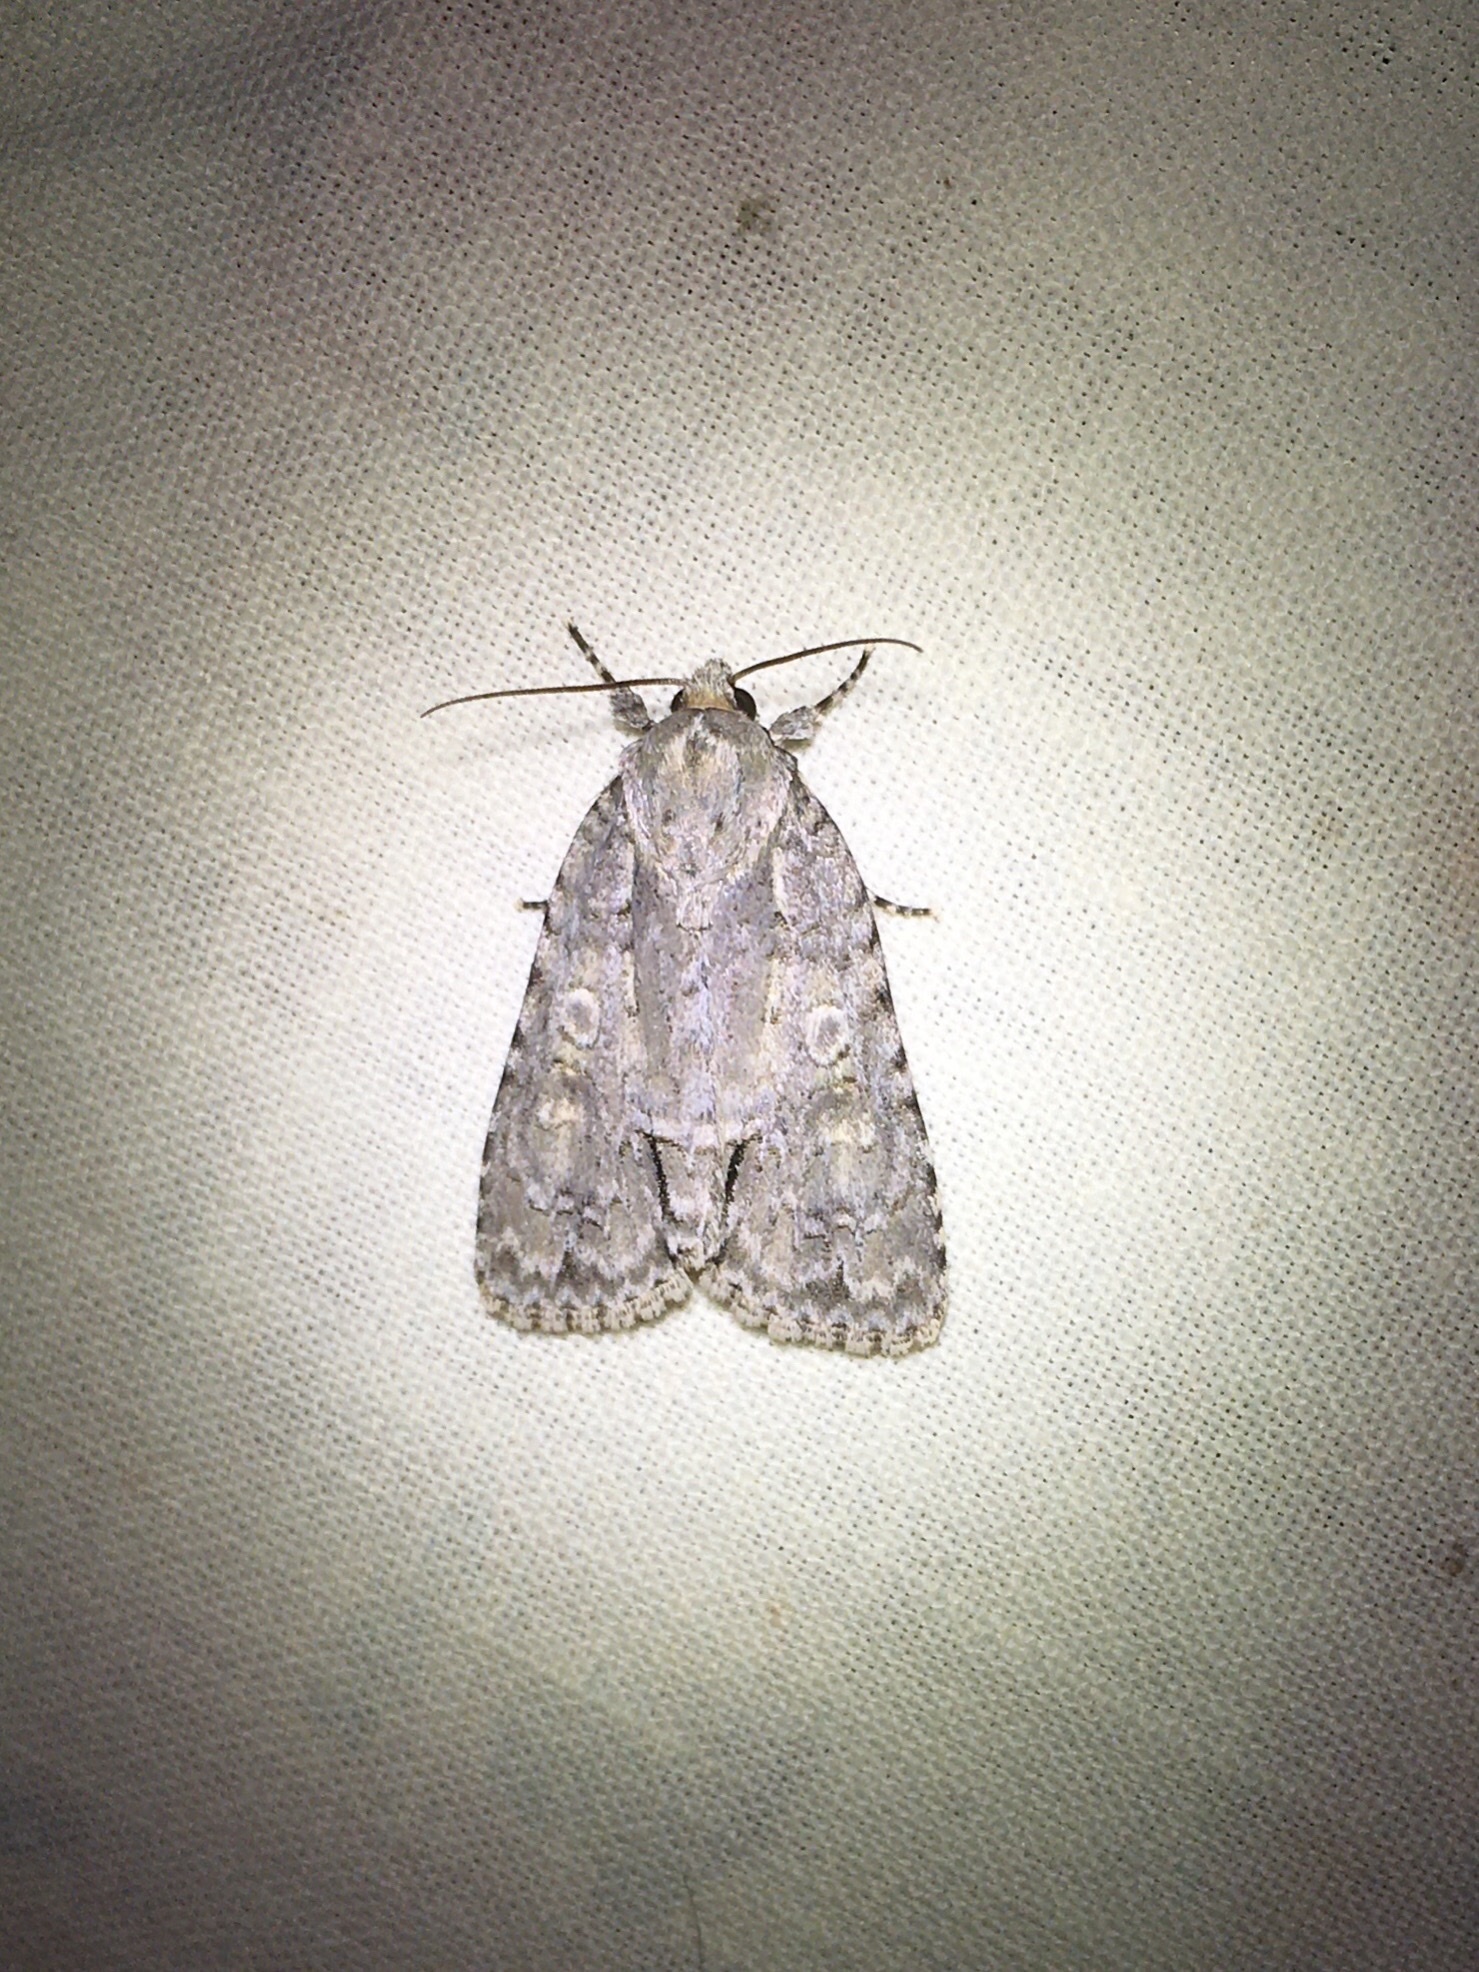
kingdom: Animalia
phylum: Arthropoda
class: Insecta
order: Lepidoptera
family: Noctuidae
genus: Acronicta
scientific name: Acronicta
